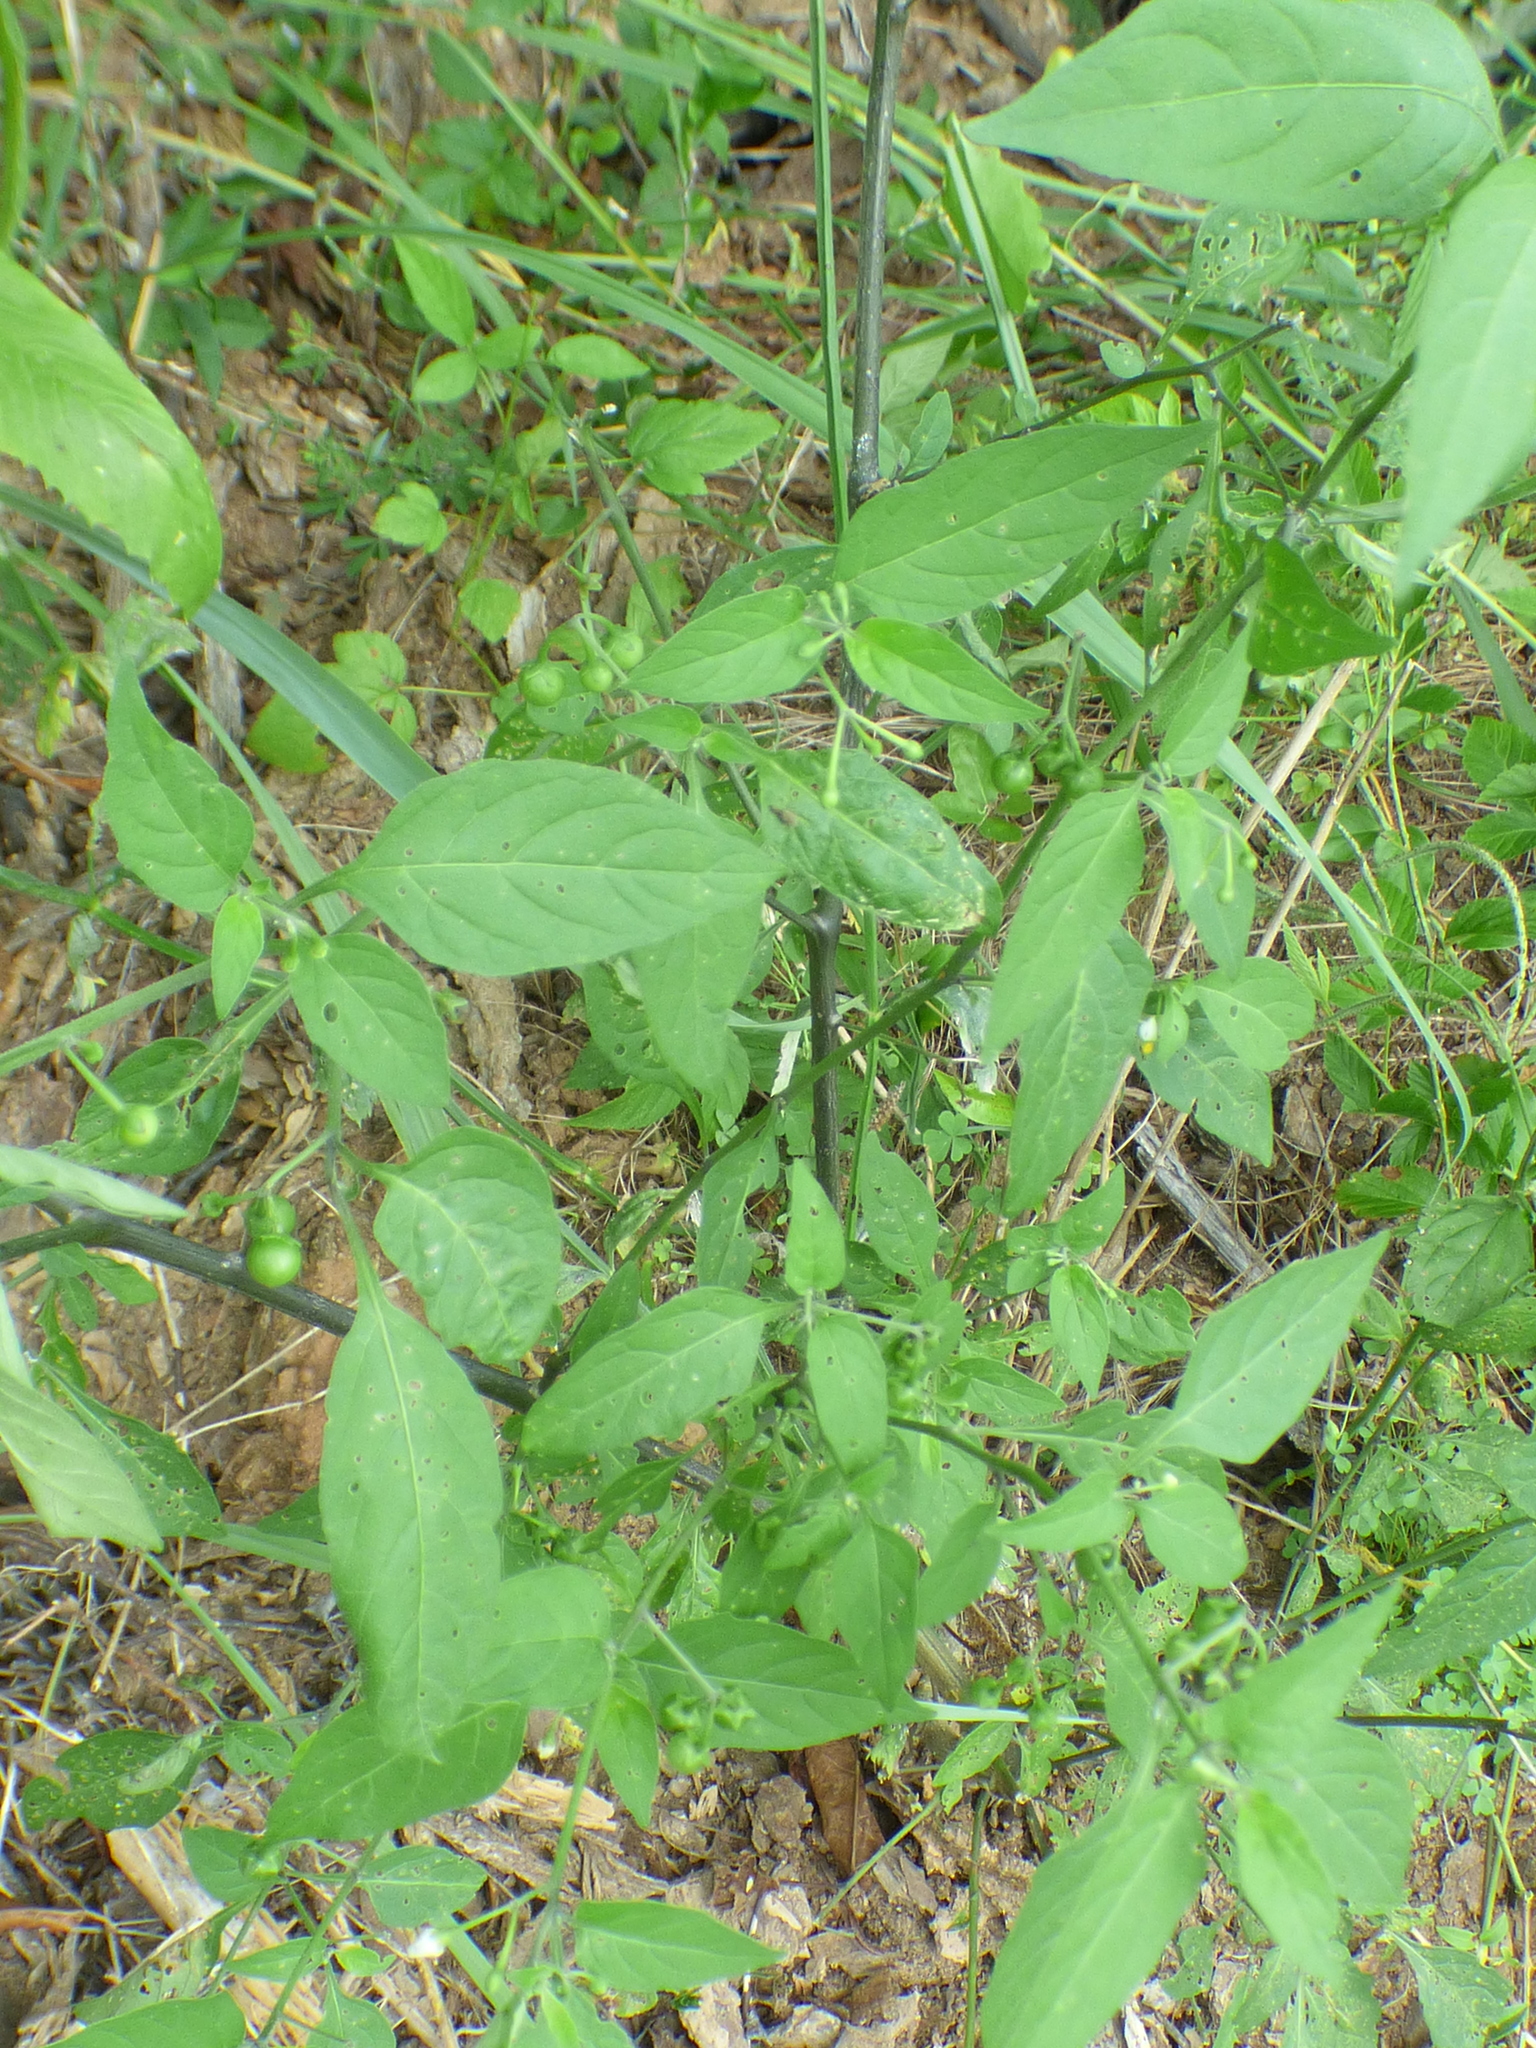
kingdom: Plantae
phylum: Tracheophyta
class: Magnoliopsida
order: Solanales
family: Solanaceae
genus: Solanum
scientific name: Solanum emulans
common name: Eastern black nightshade
